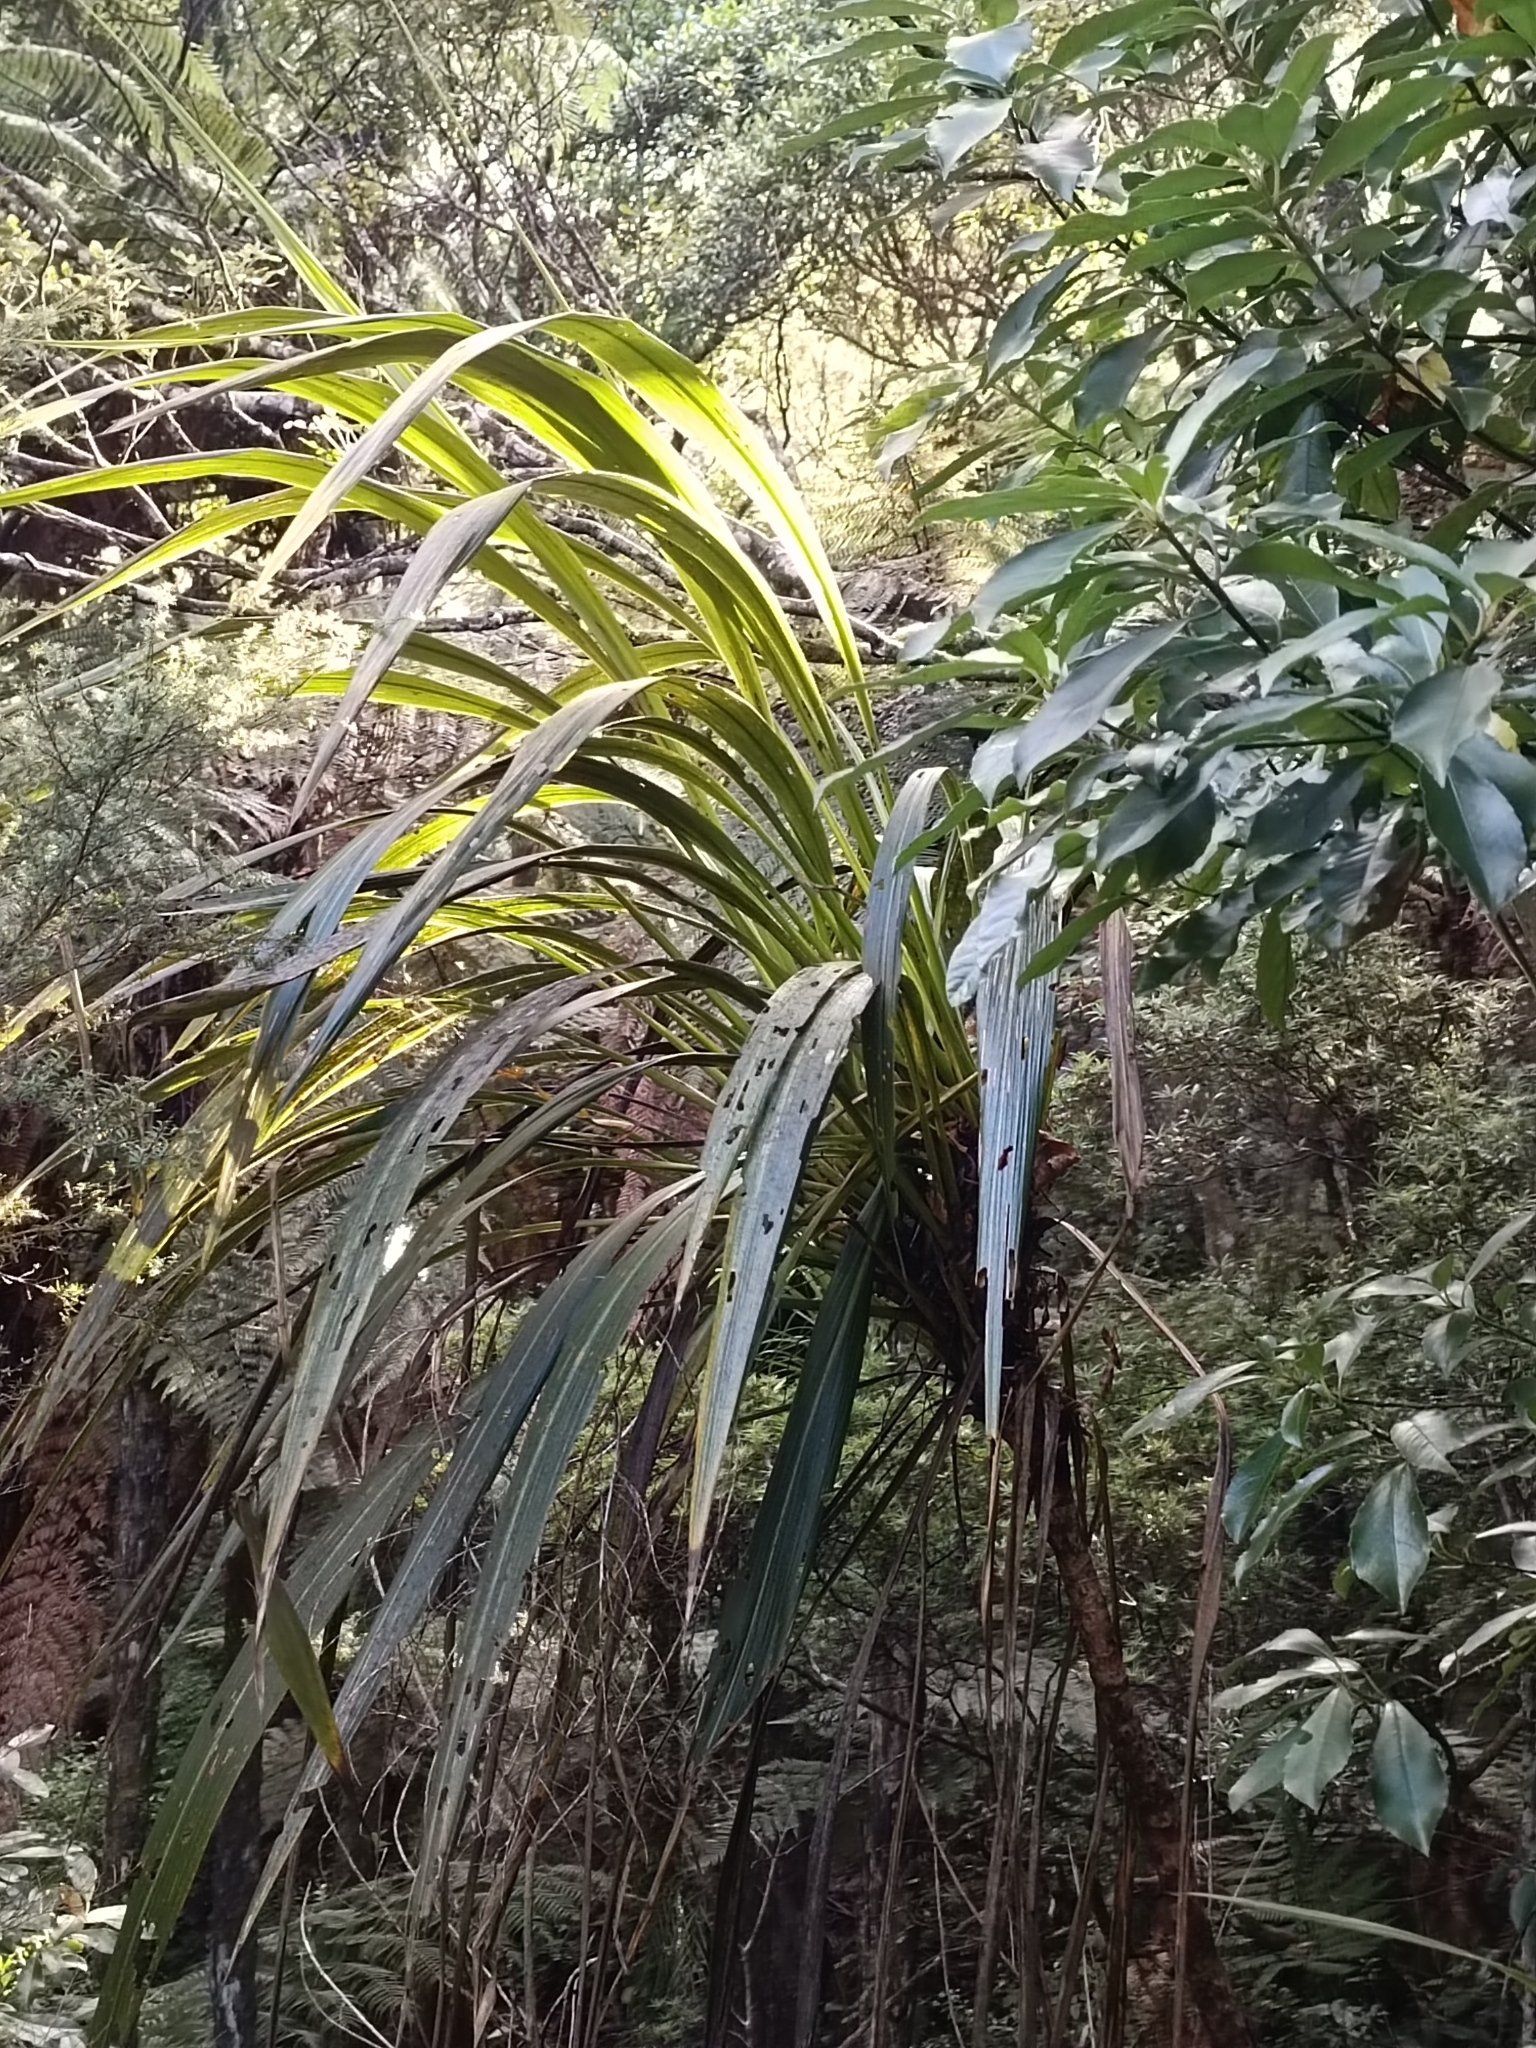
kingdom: Plantae
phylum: Tracheophyta
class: Liliopsida
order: Asparagales
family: Asparagaceae
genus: Cordyline
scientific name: Cordyline banksii
